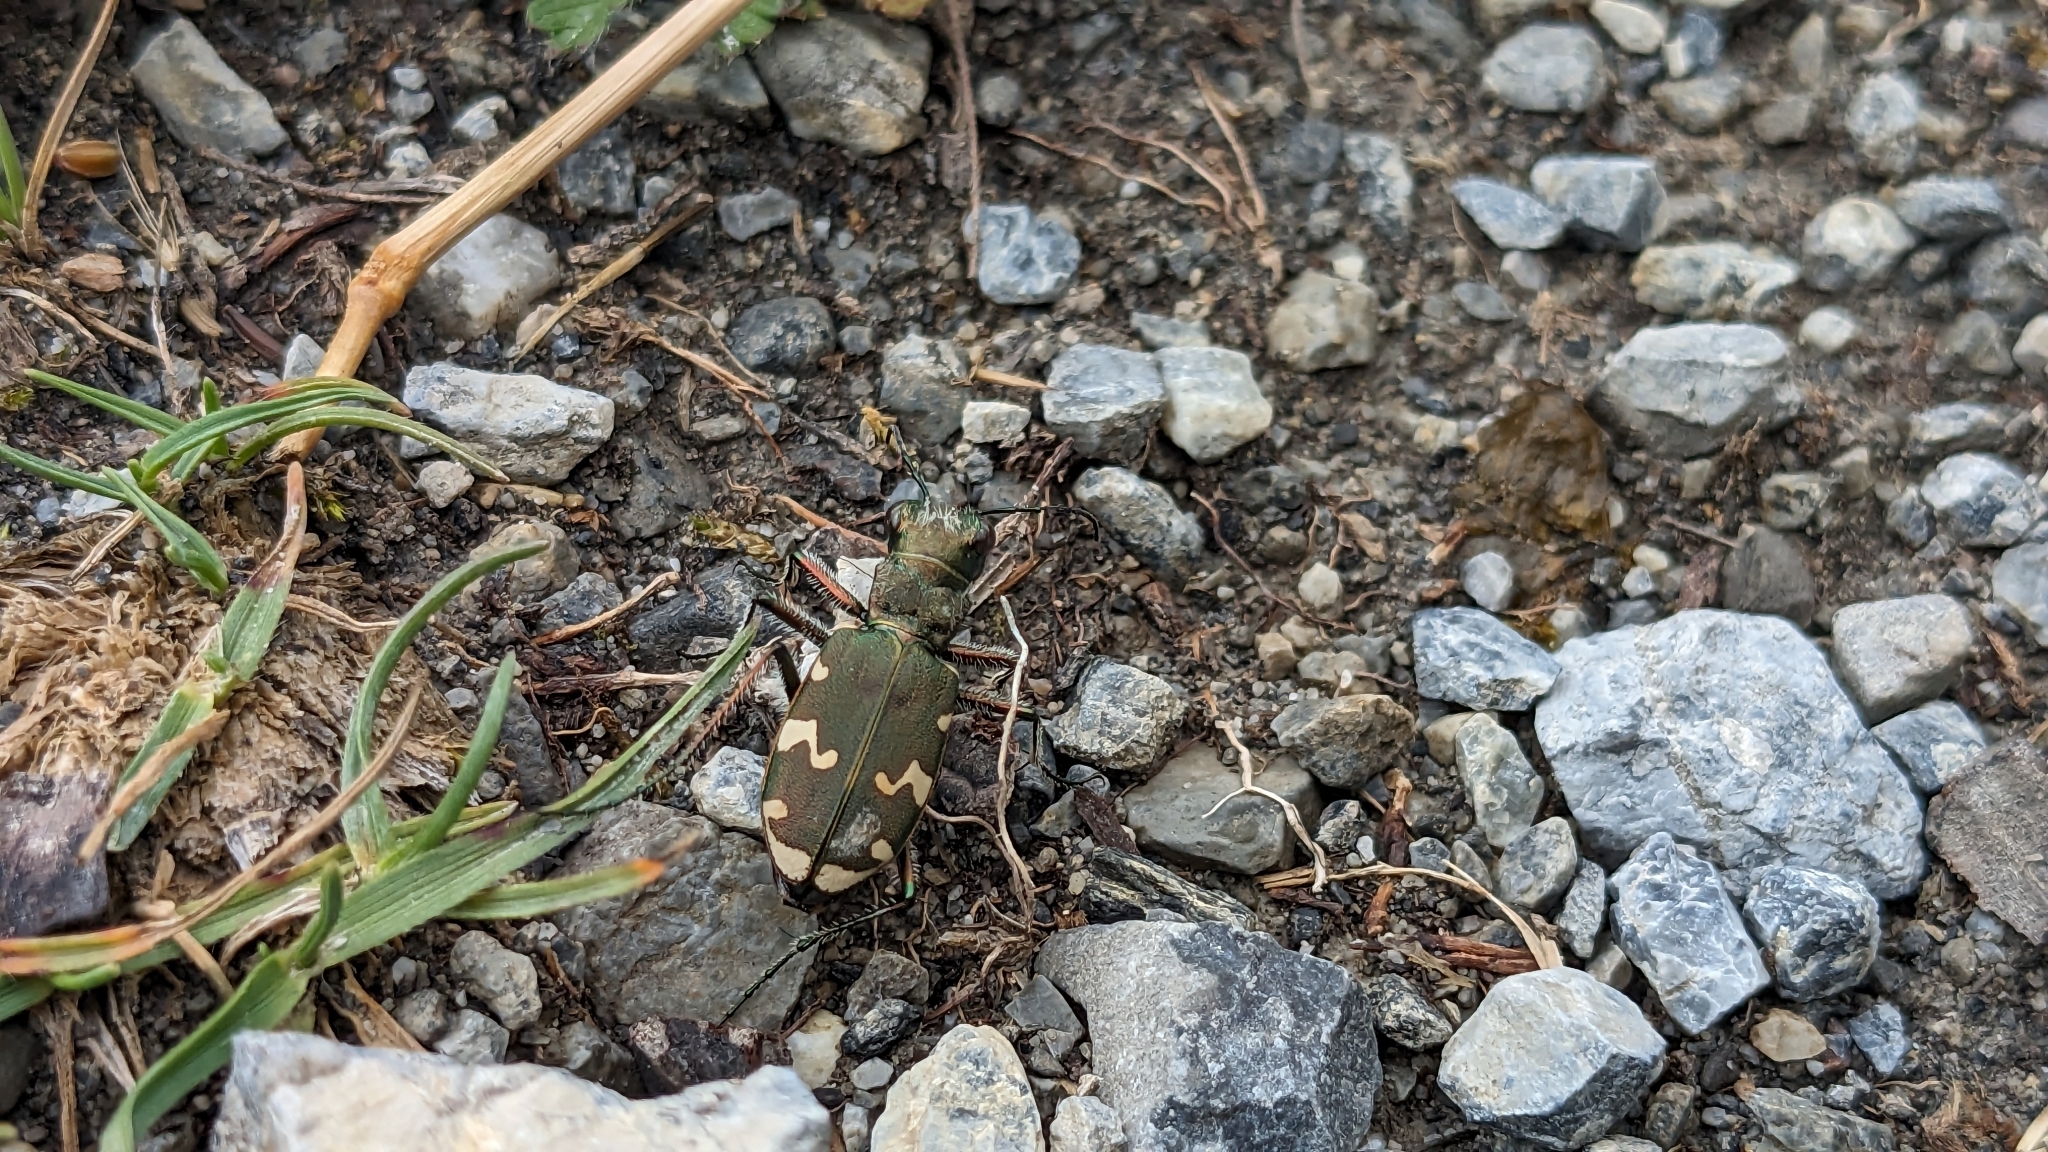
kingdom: Animalia
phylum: Arthropoda
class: Insecta
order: Coleoptera
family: Carabidae
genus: Cicindela
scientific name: Cicindela sylvicola
